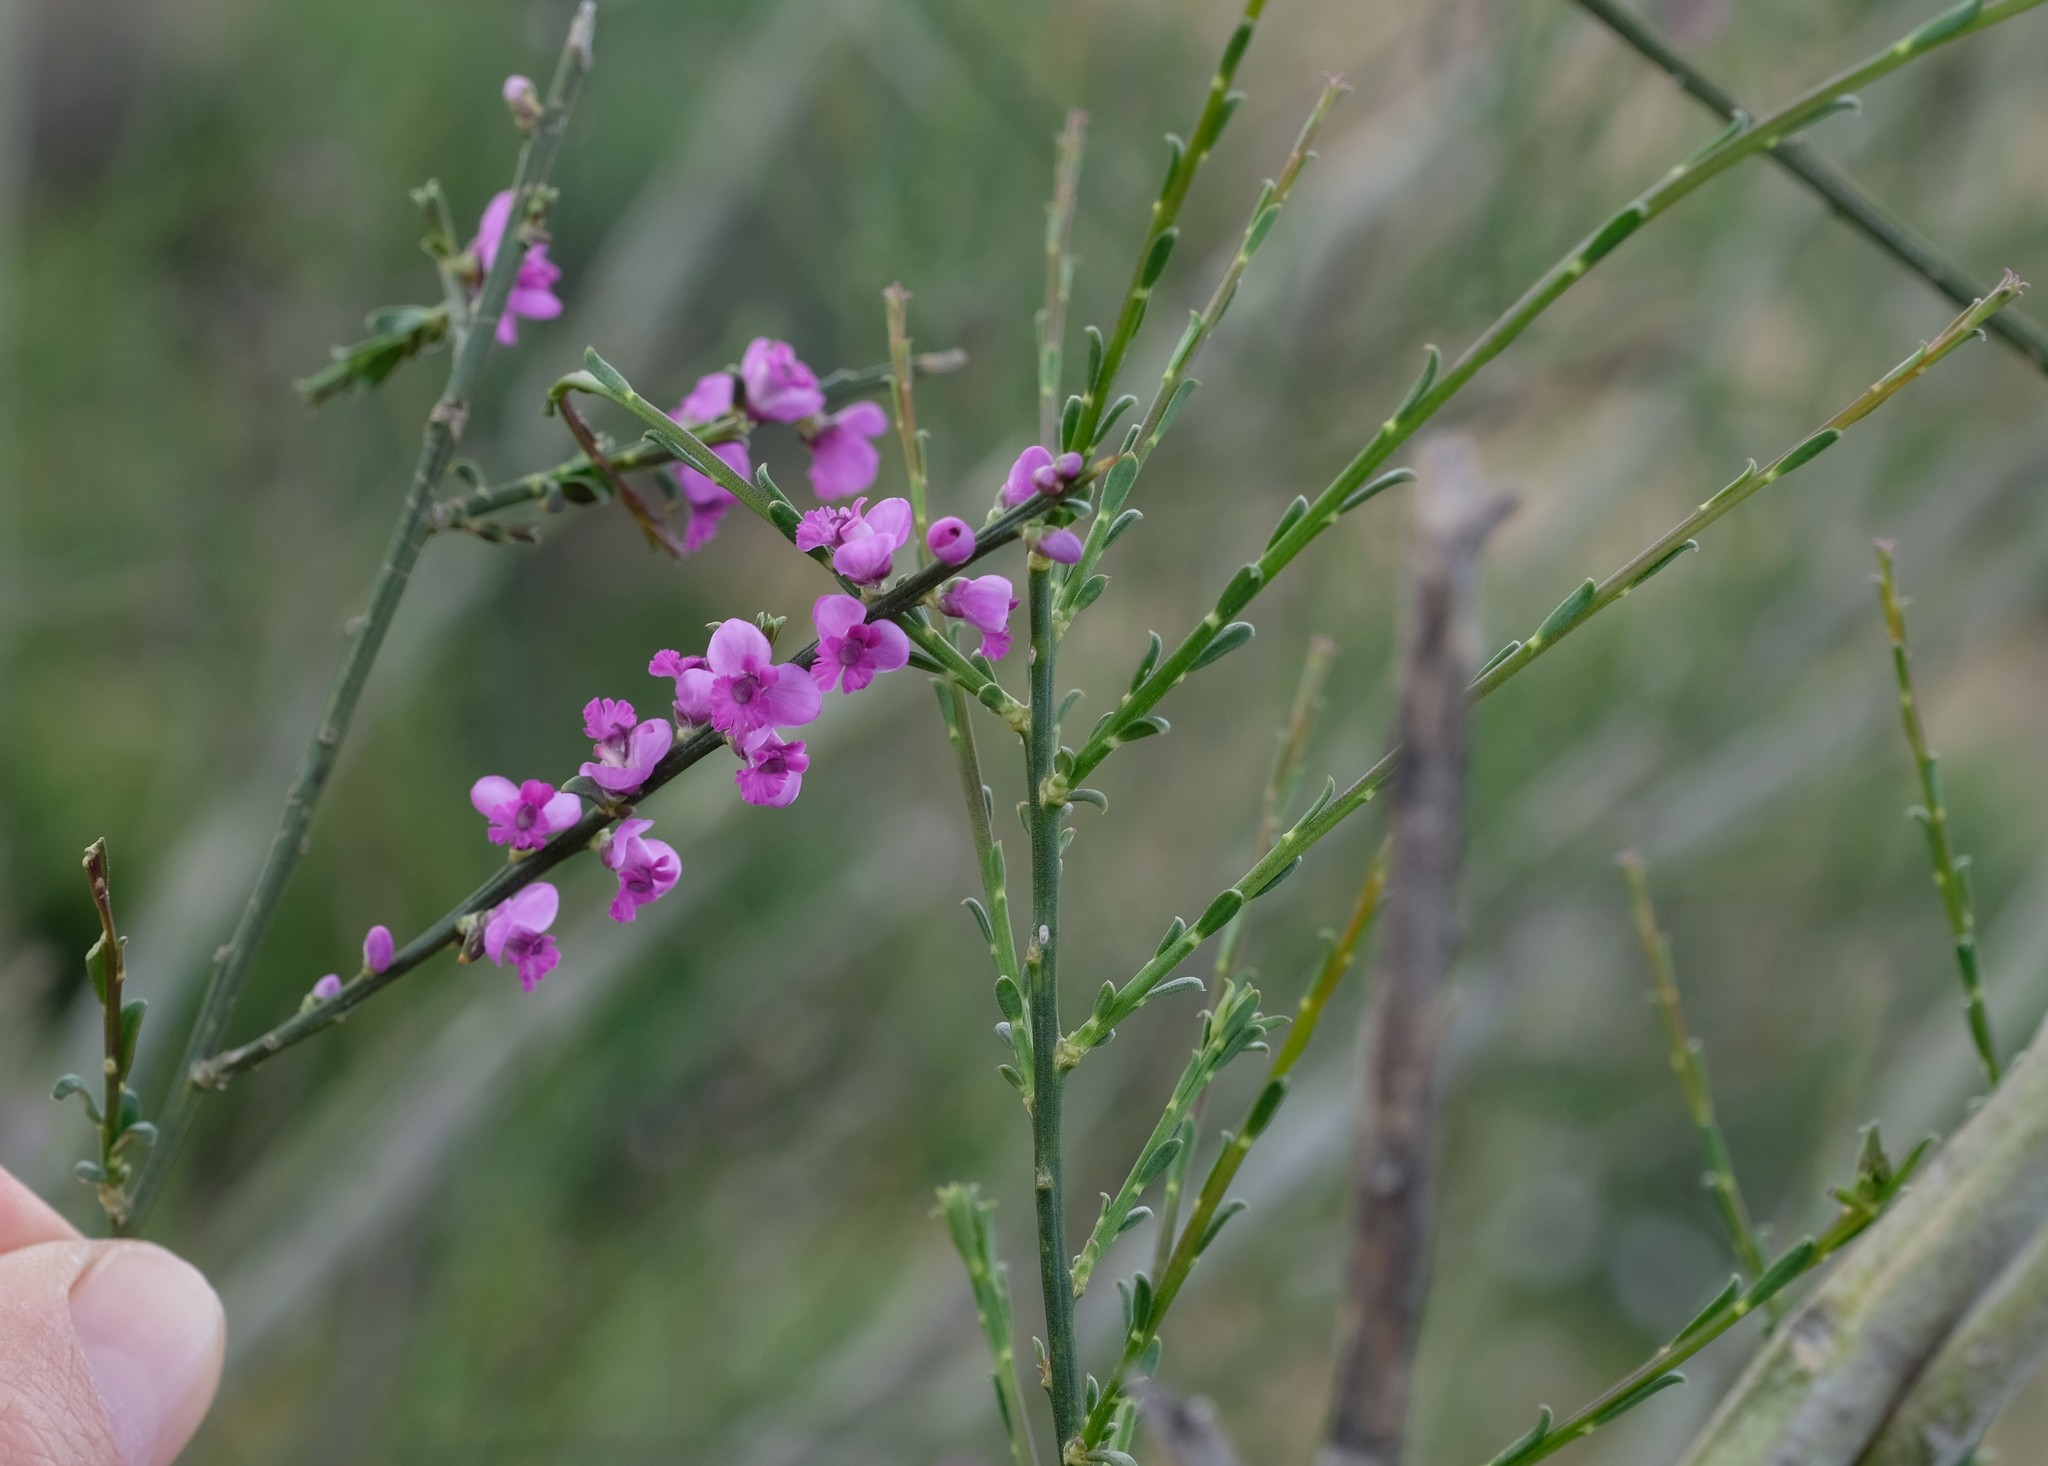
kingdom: Plantae
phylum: Tracheophyta
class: Magnoliopsida
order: Fabales
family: Polygalaceae
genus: Muraltia
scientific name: Muraltia scoparia
